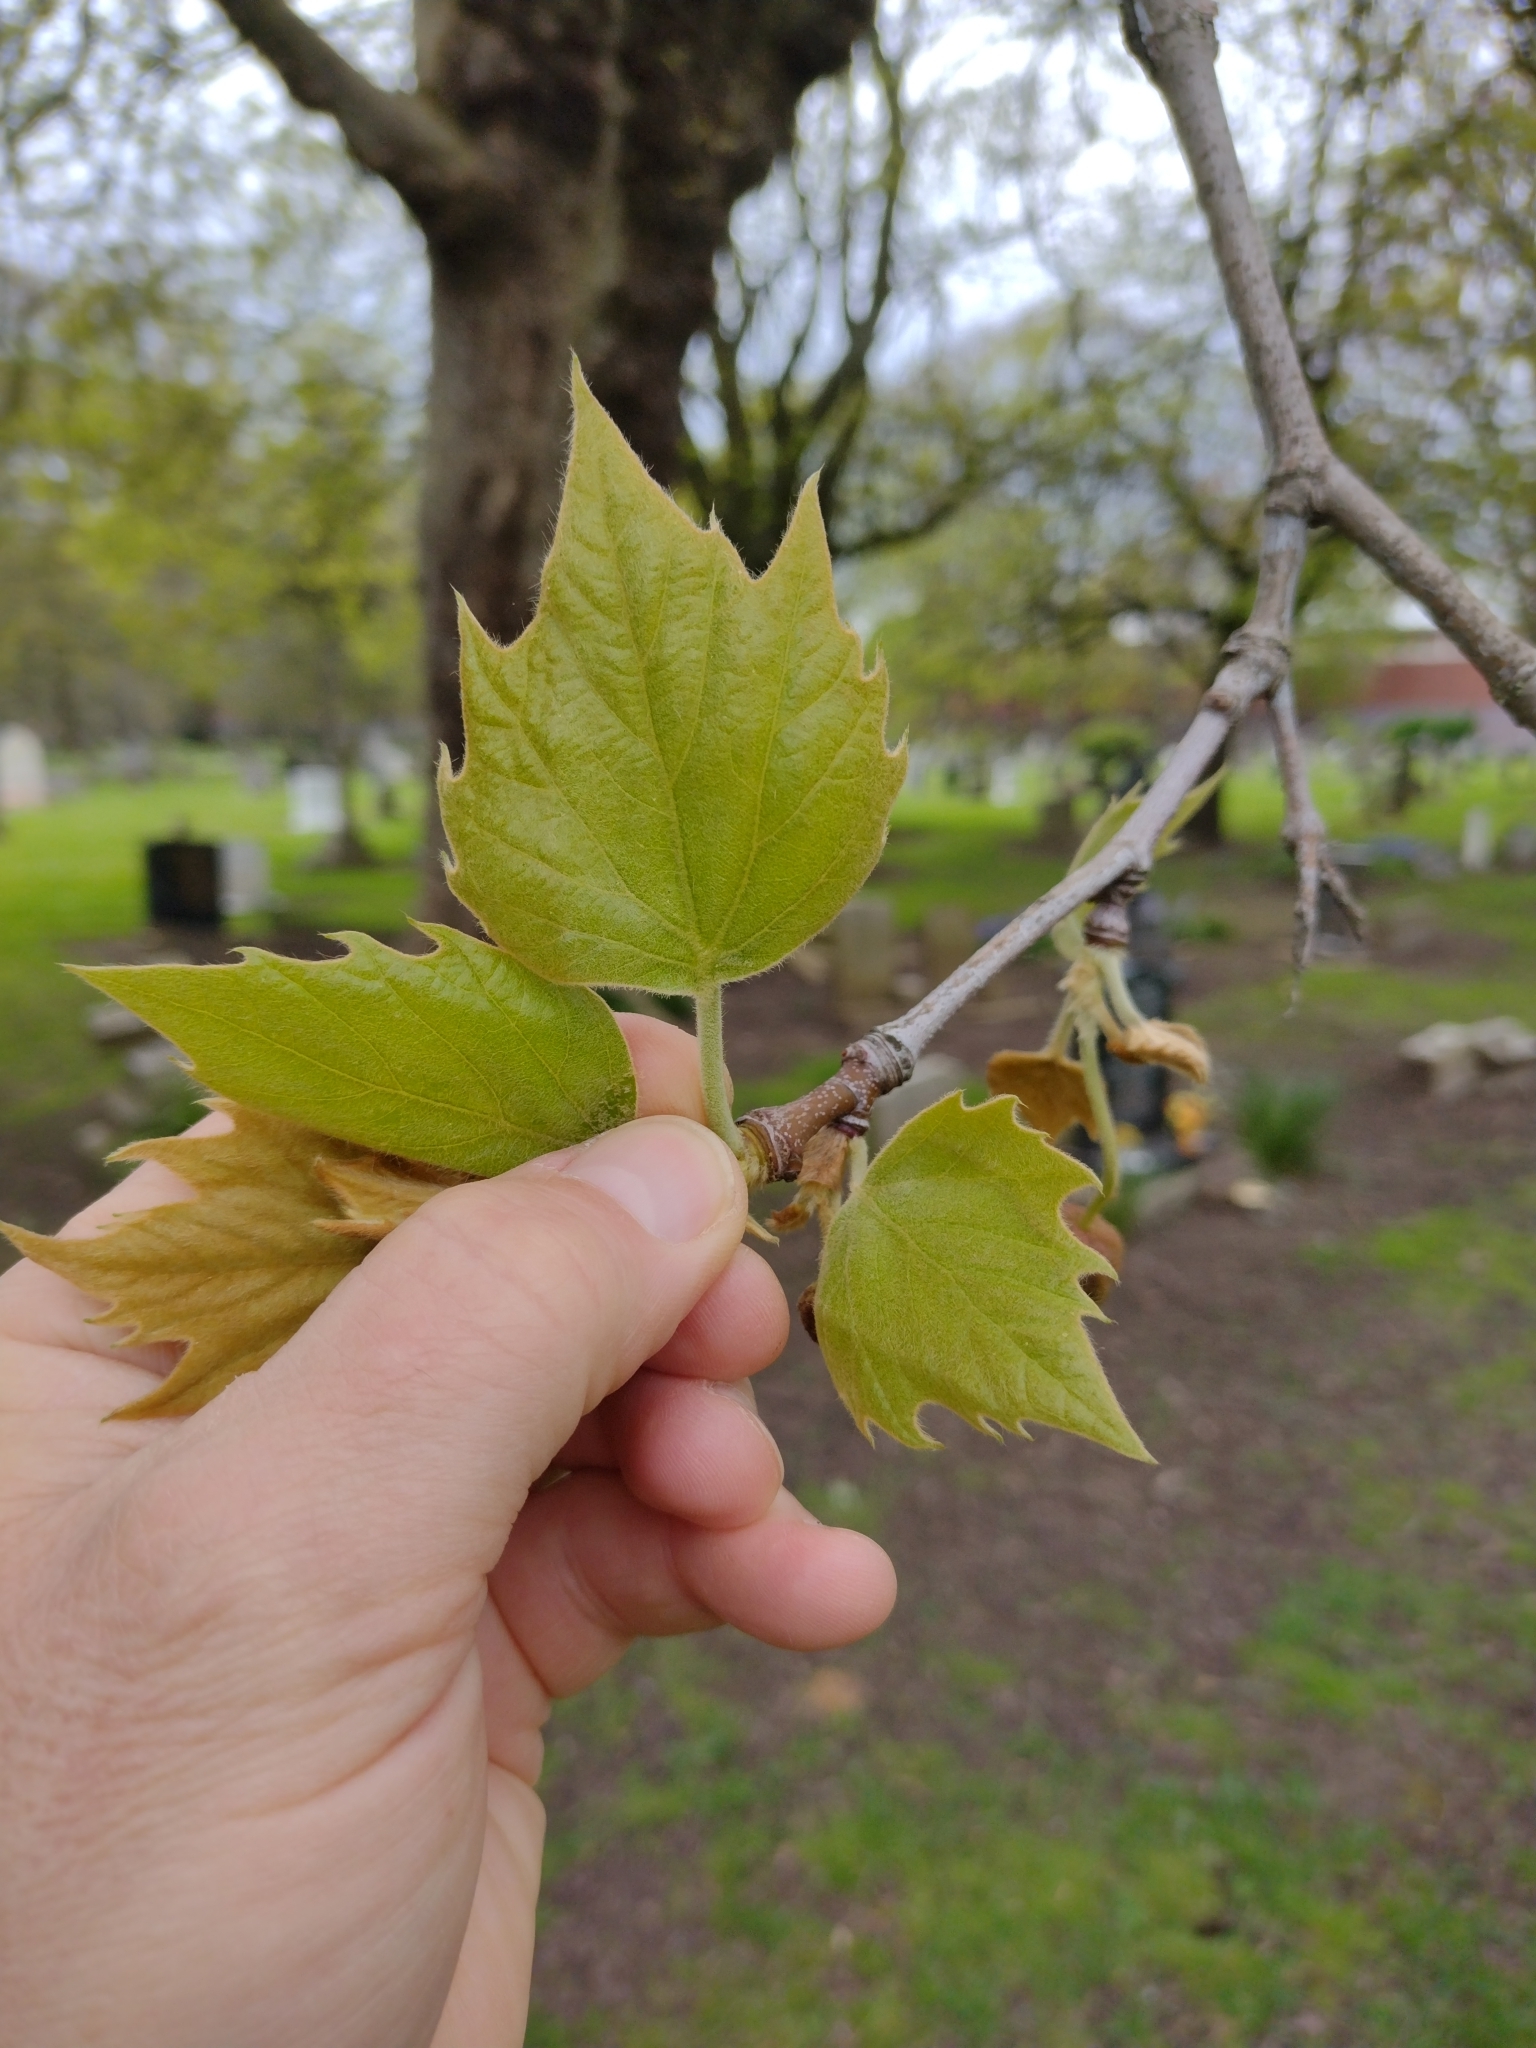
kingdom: Plantae
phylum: Tracheophyta
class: Magnoliopsida
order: Proteales
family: Platanaceae
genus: Platanus
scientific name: Platanus hispanica
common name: London plane
